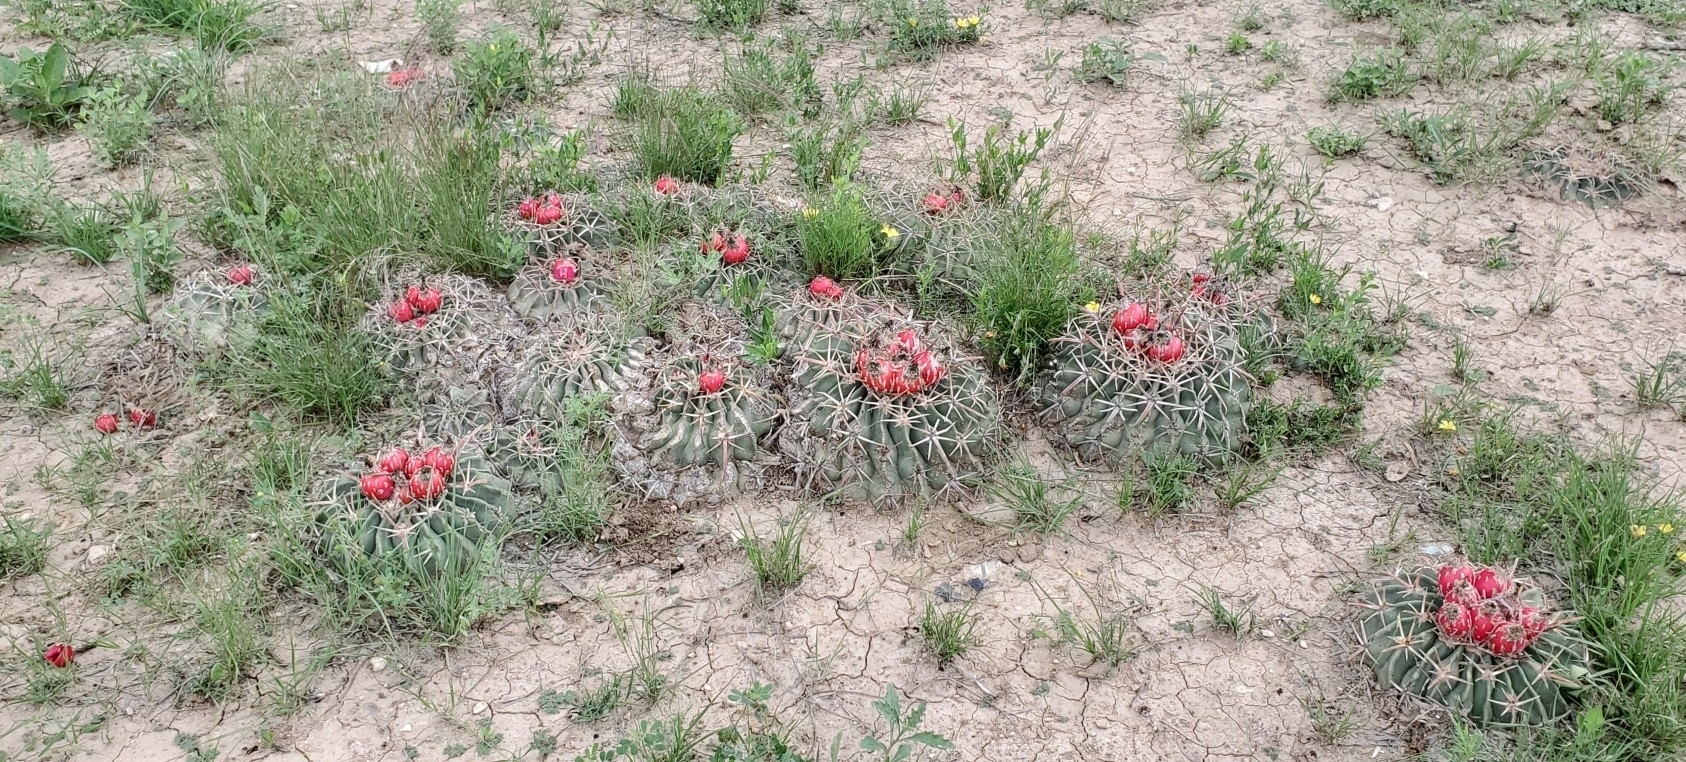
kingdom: Plantae
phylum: Tracheophyta
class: Magnoliopsida
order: Caryophyllales
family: Cactaceae
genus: Echinocactus
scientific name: Echinocactus texensis
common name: Devil's pincushion
